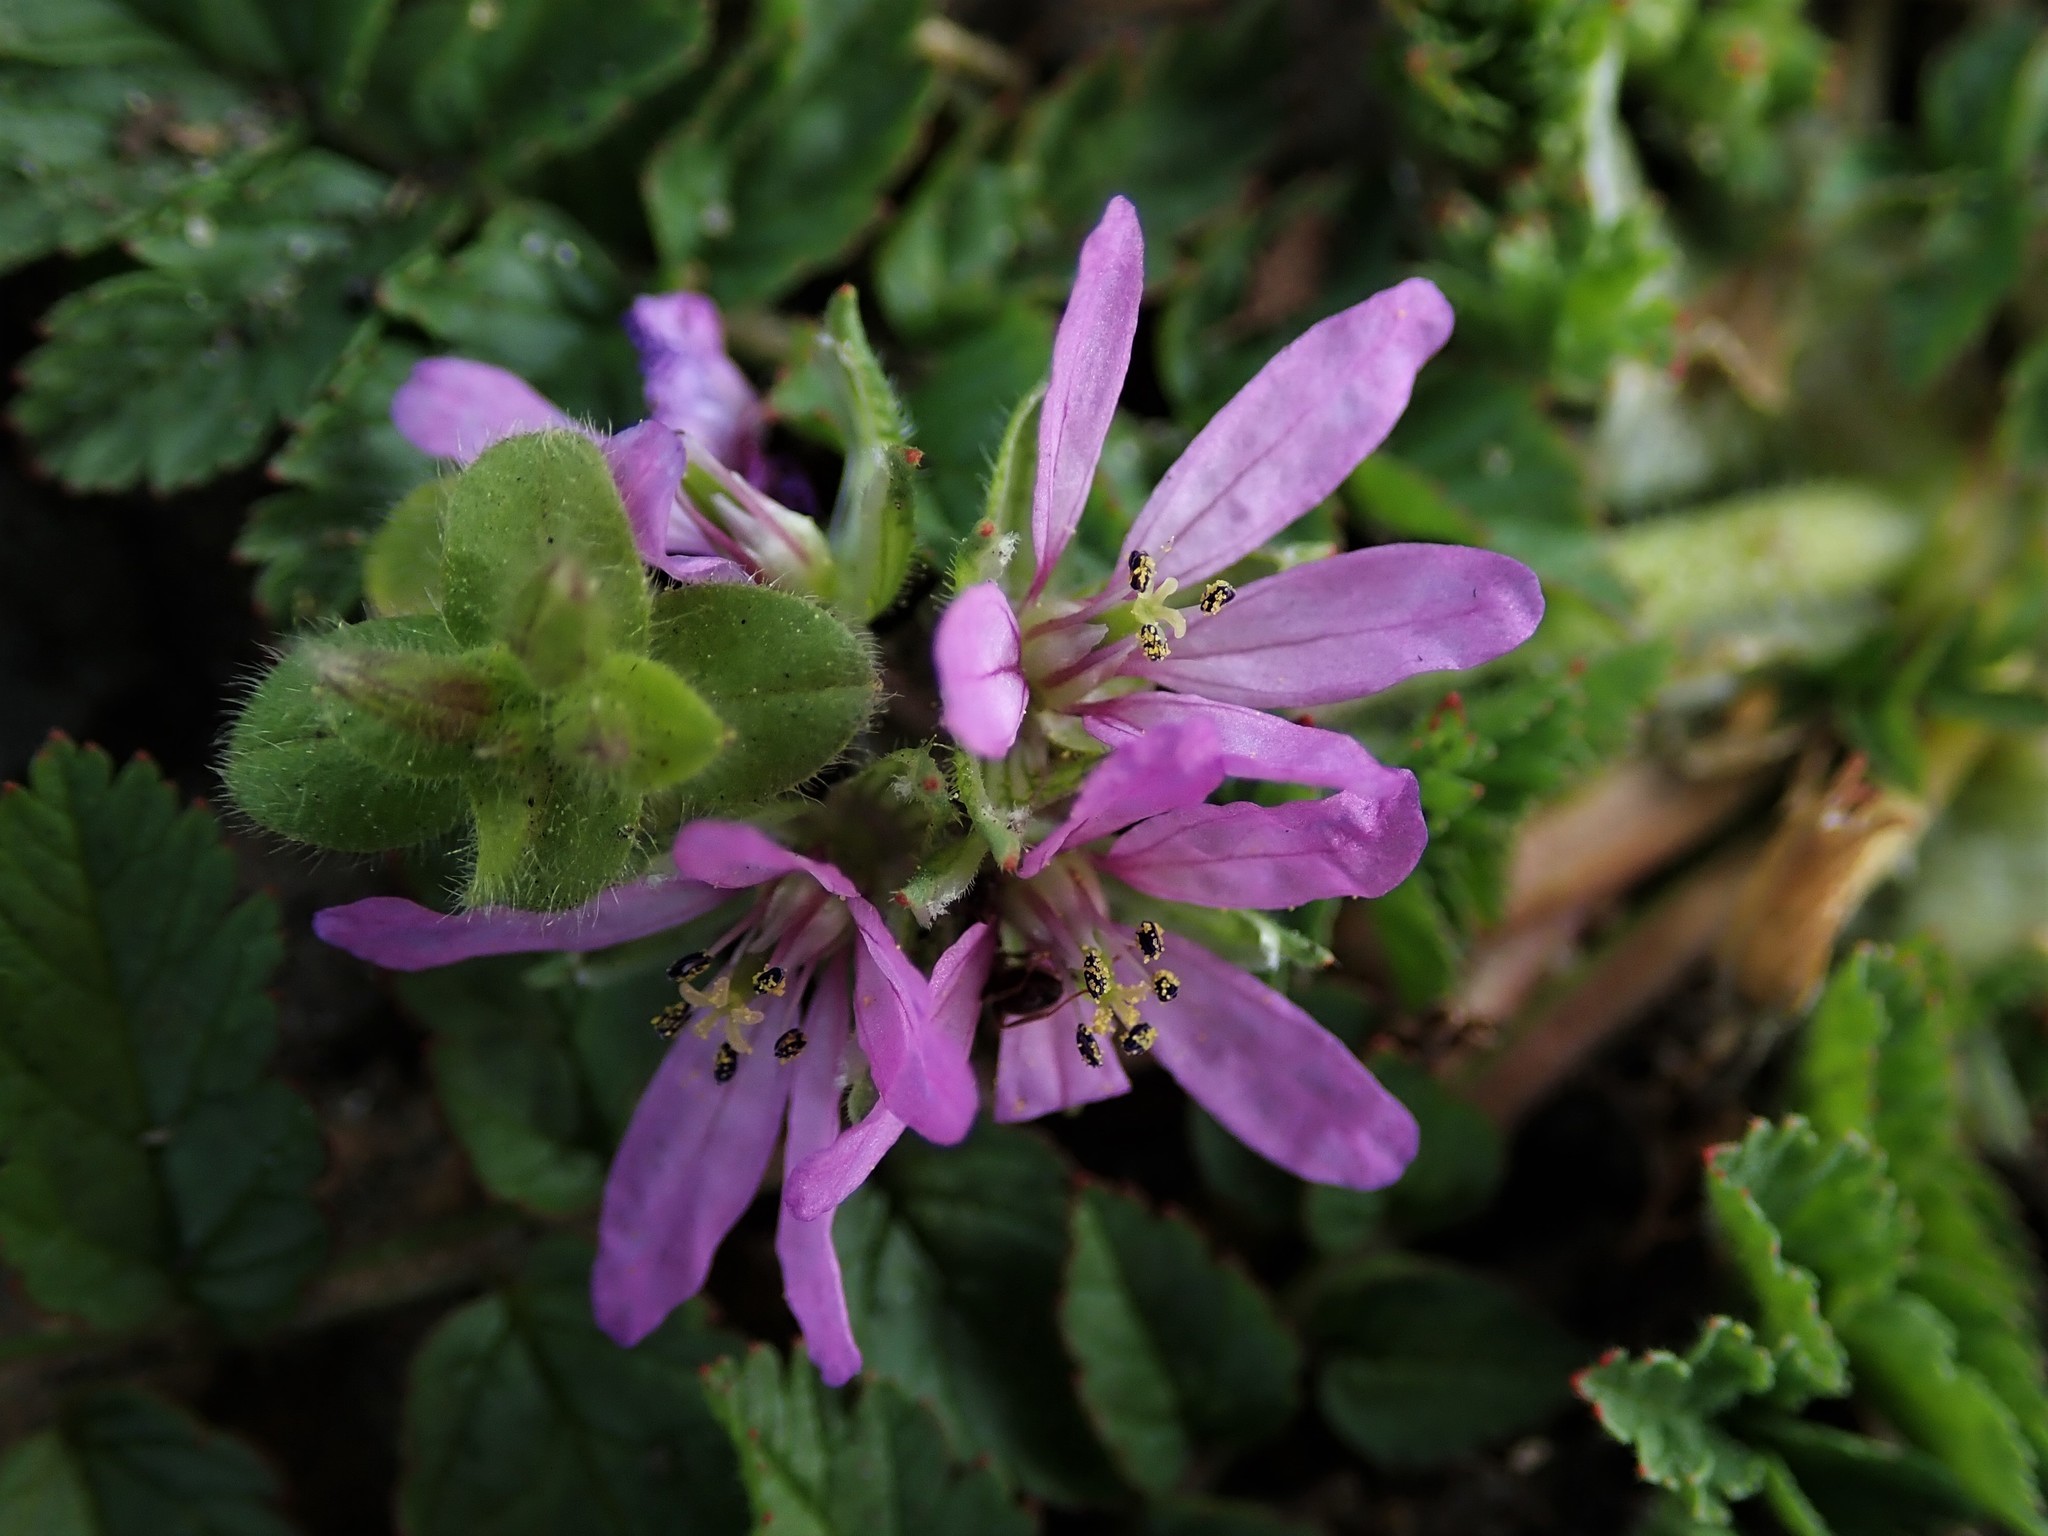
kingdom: Plantae
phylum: Tracheophyta
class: Magnoliopsida
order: Geraniales
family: Geraniaceae
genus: Erodium
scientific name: Erodium moschatum
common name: Musk stork's-bill
